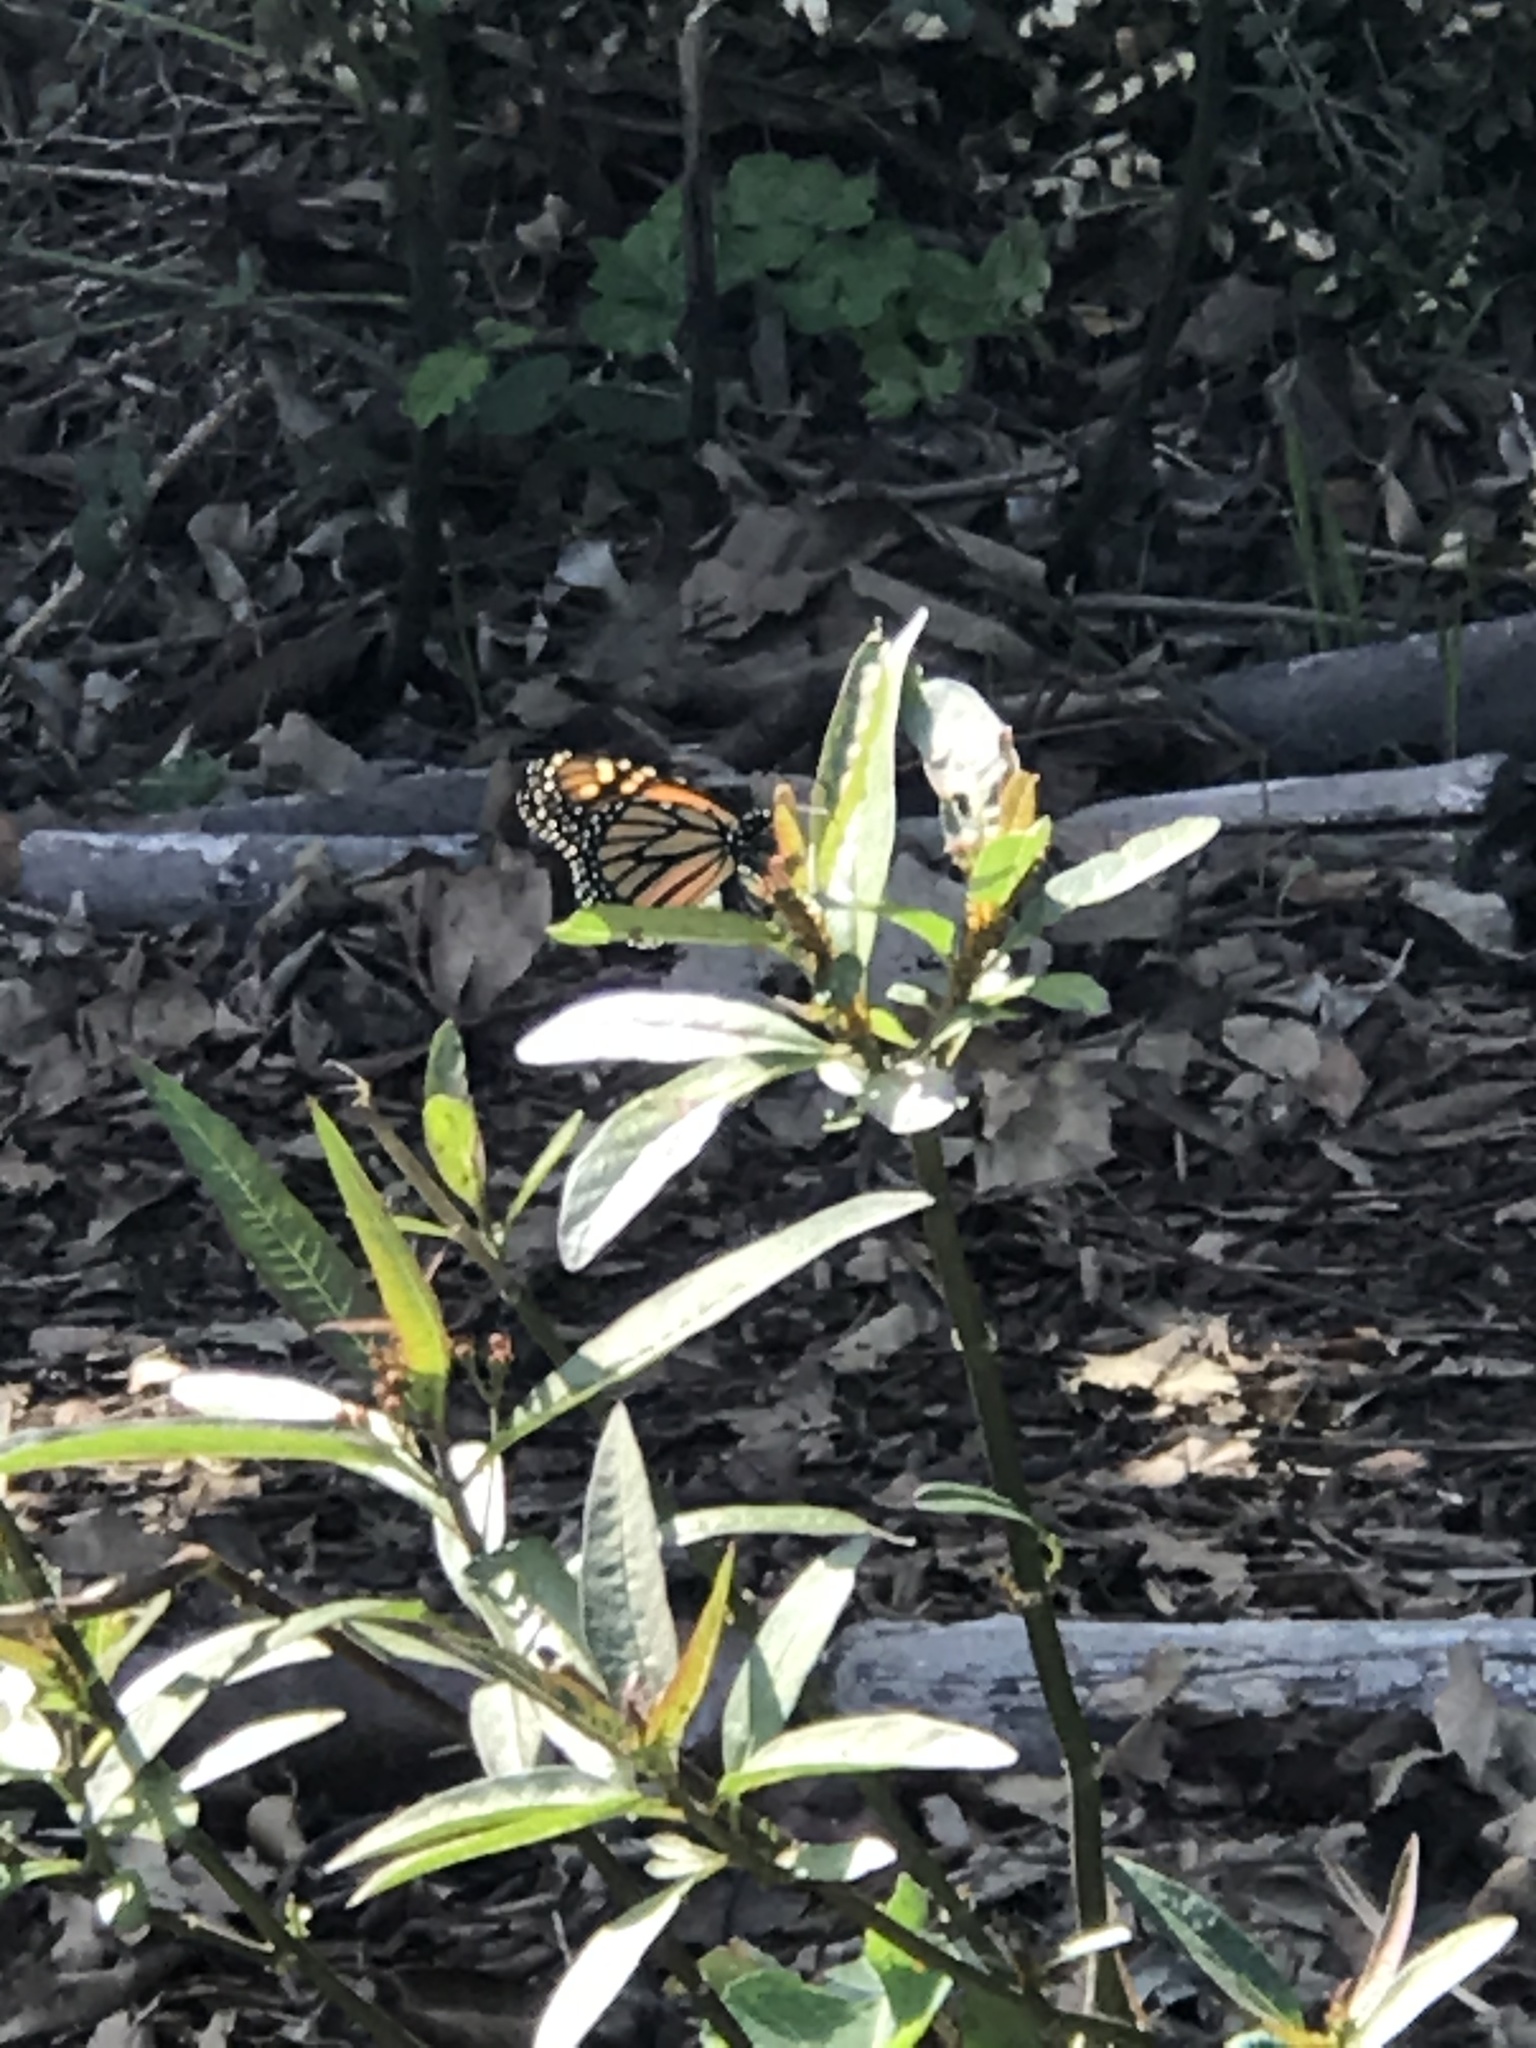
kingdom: Animalia
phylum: Arthropoda
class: Insecta
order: Lepidoptera
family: Nymphalidae
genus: Danaus
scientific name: Danaus plexippus
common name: Monarch
